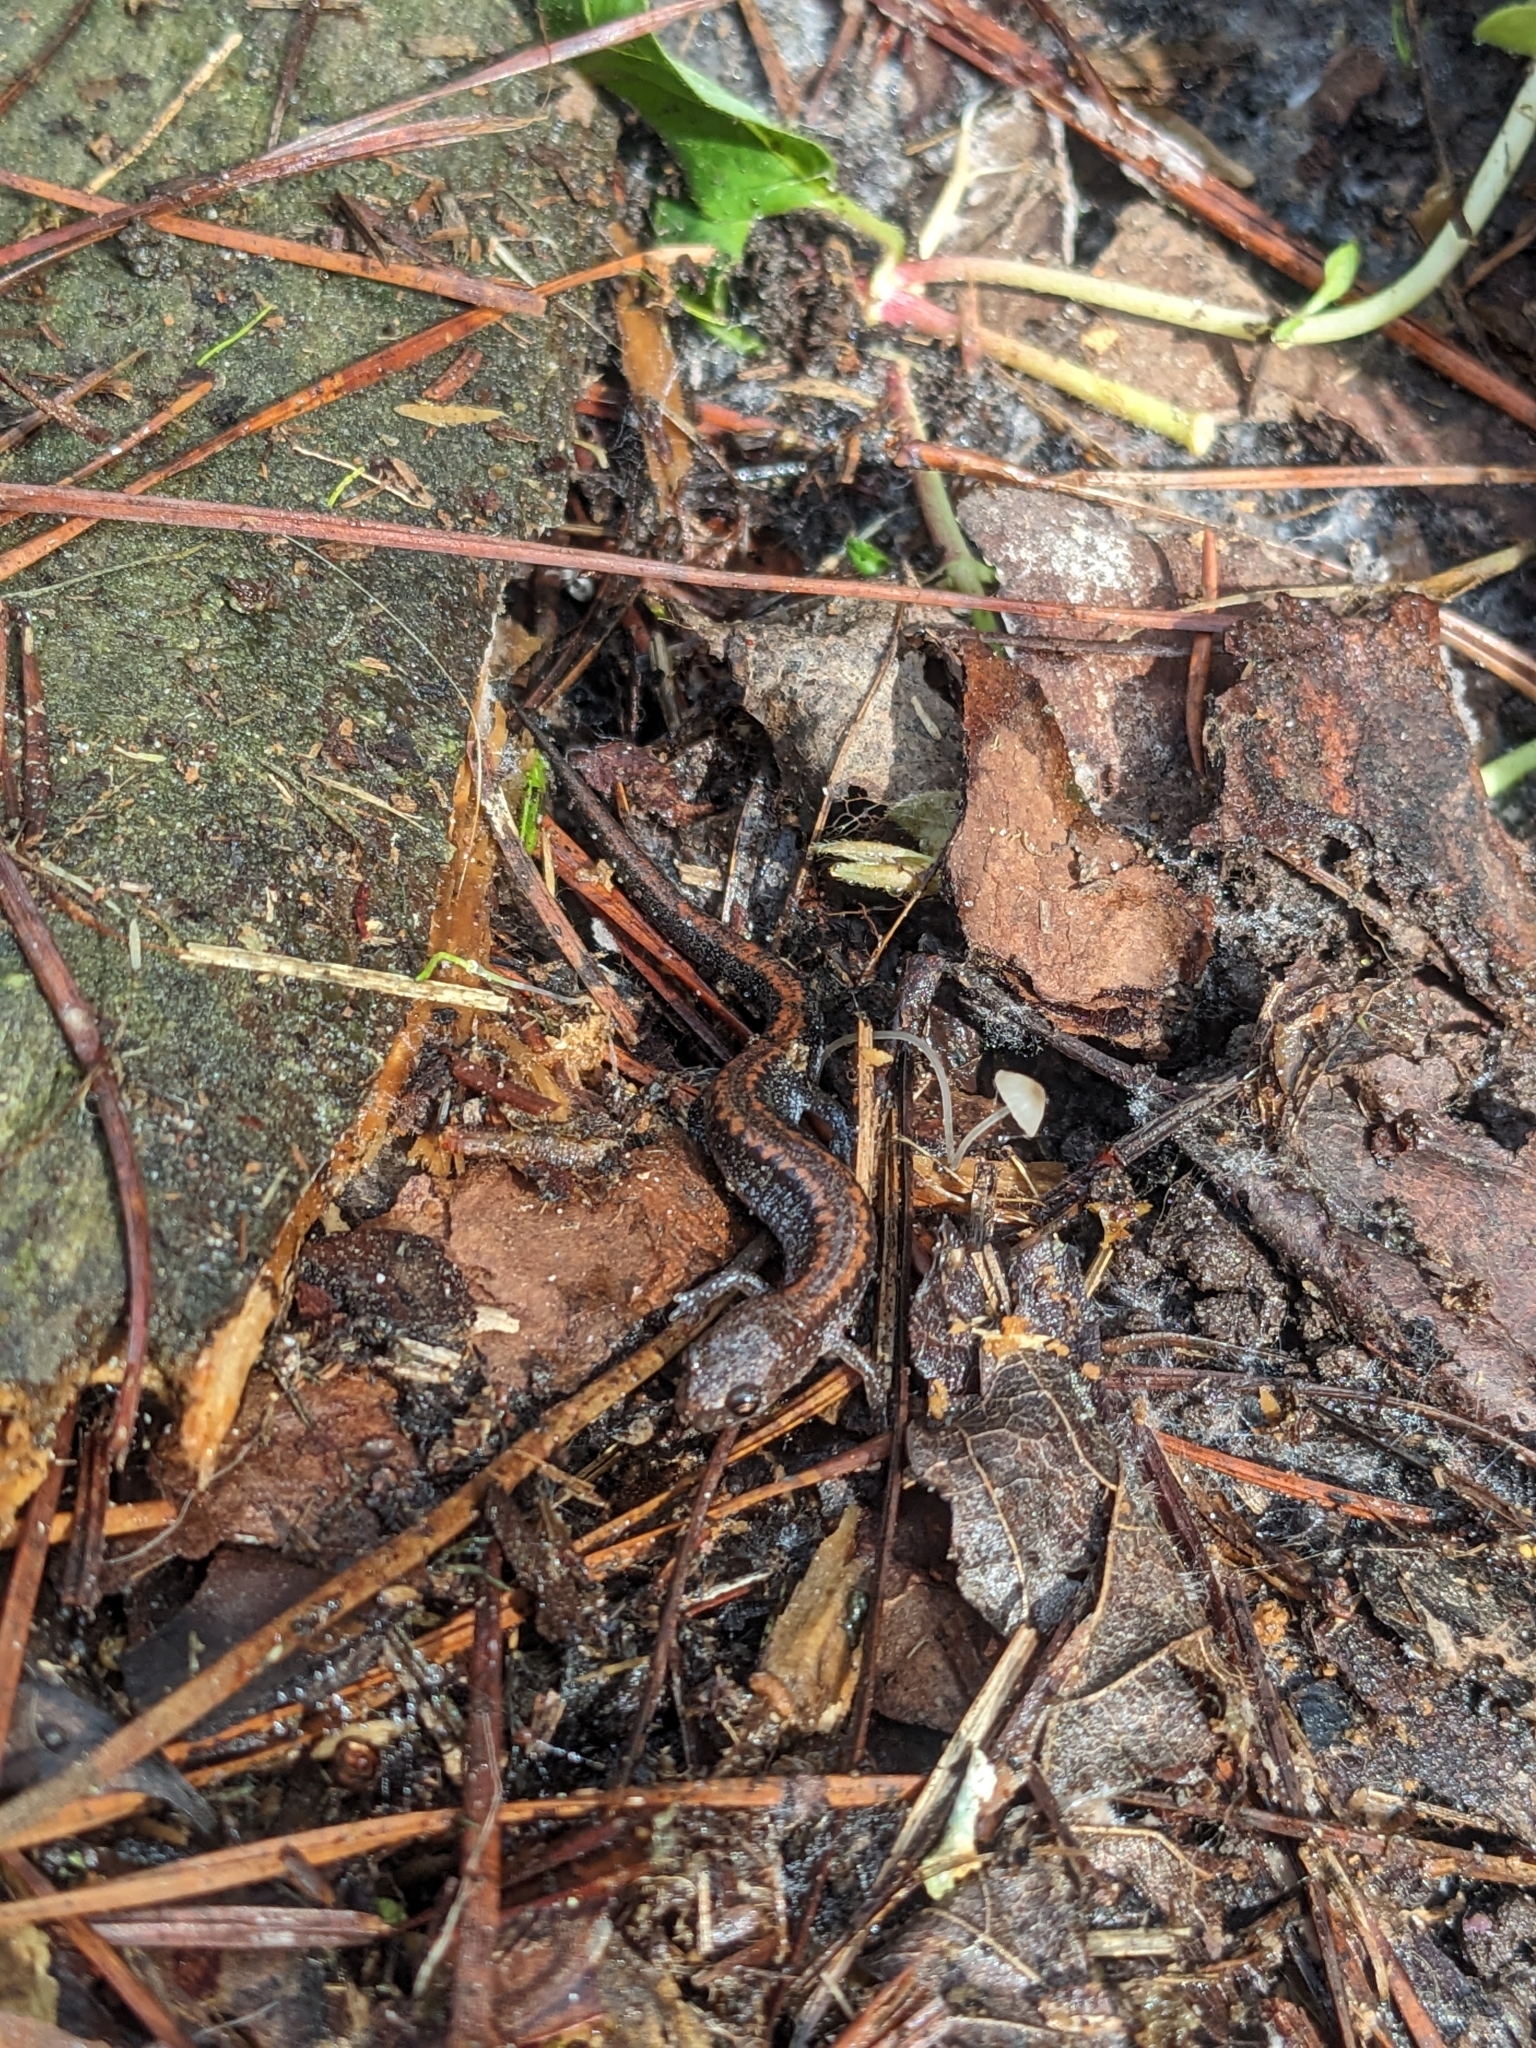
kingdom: Animalia
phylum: Chordata
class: Amphibia
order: Caudata
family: Plethodontidae
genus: Plethodon
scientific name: Plethodon cinereus
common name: Redback salamander
